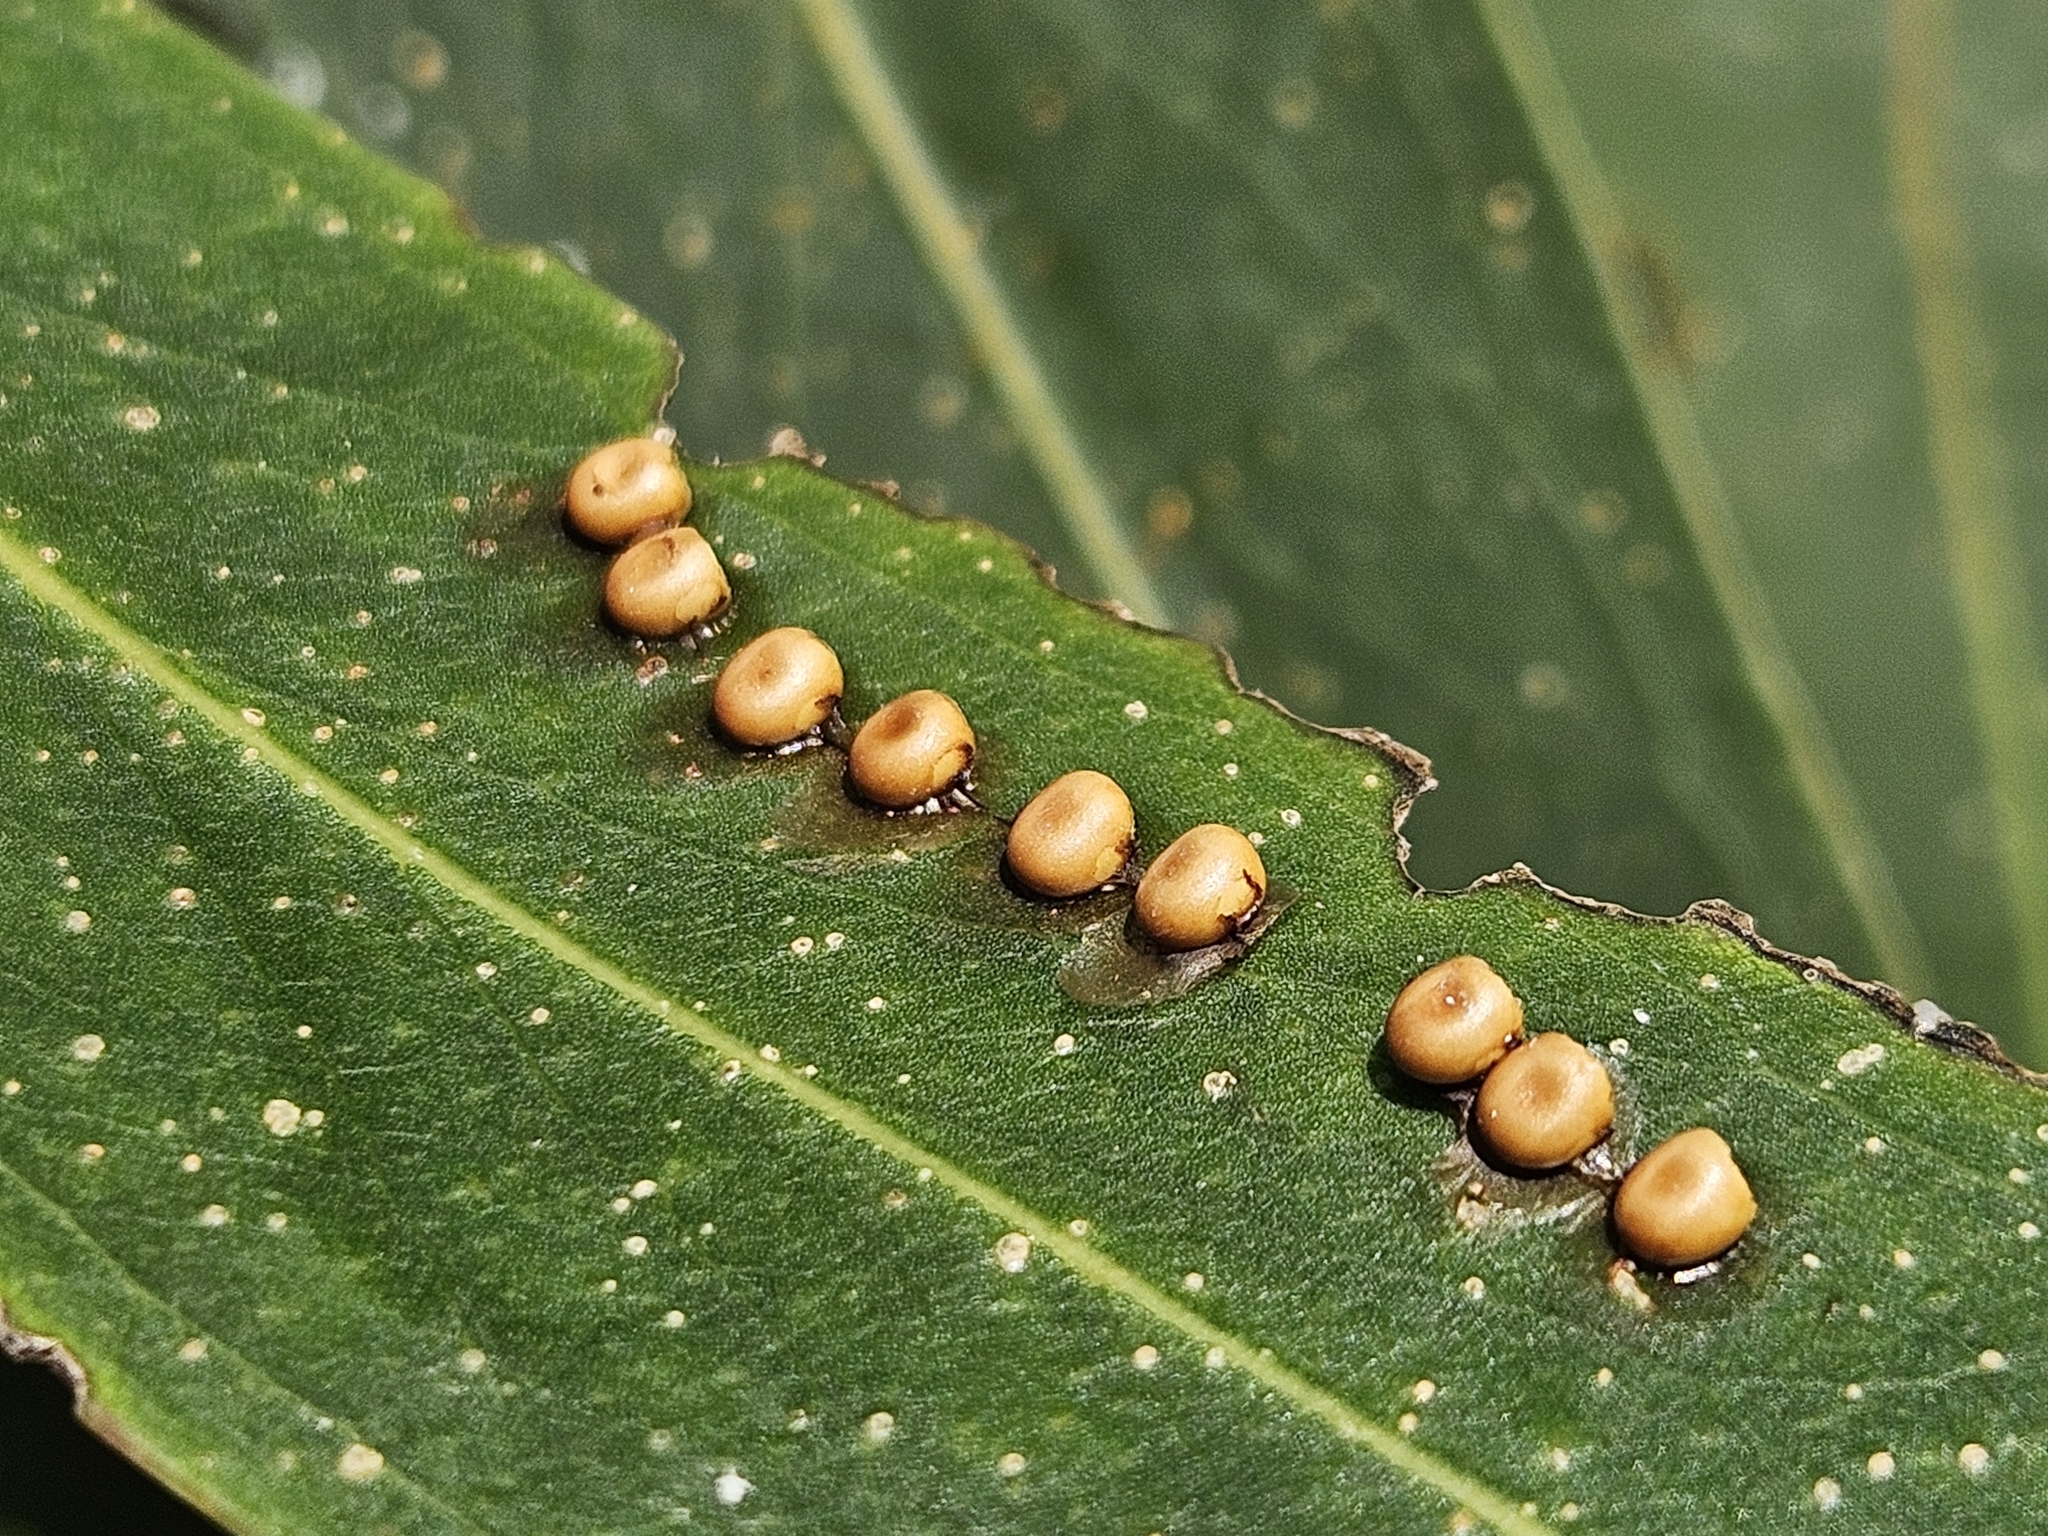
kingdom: Animalia
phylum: Arthropoda
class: Insecta
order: Lepidoptera
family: Saturniidae
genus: Opodiphthera
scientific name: Opodiphthera
